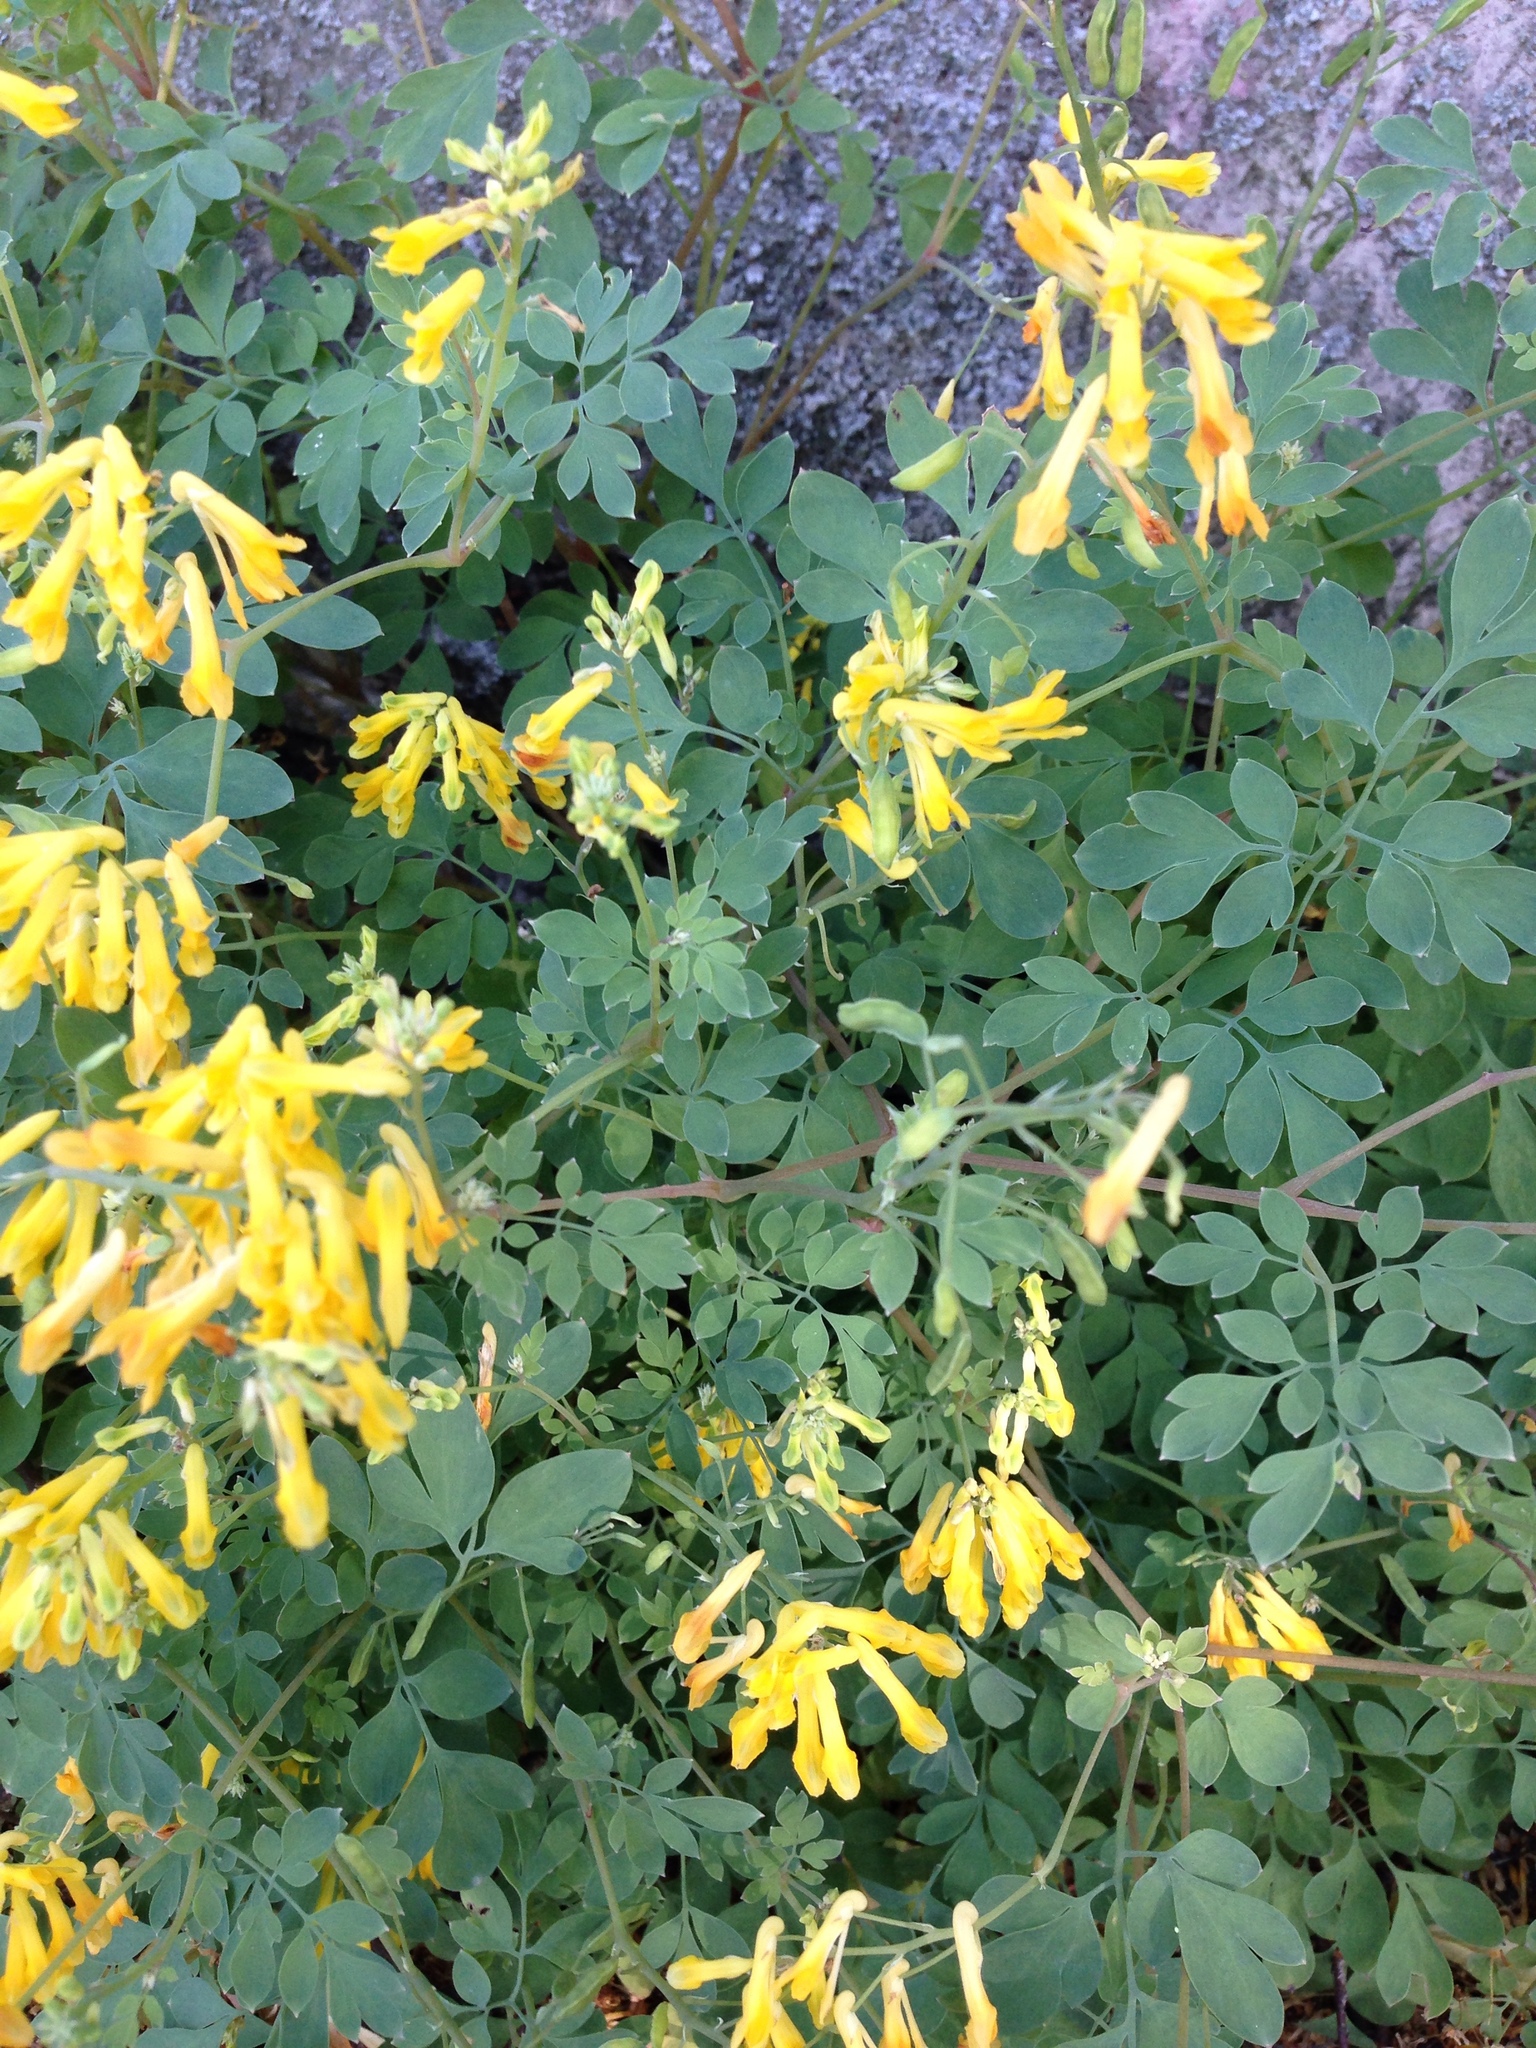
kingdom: Plantae
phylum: Tracheophyta
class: Magnoliopsida
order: Ranunculales
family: Papaveraceae
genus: Pseudofumaria
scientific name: Pseudofumaria lutea
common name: Yellow corydalis
